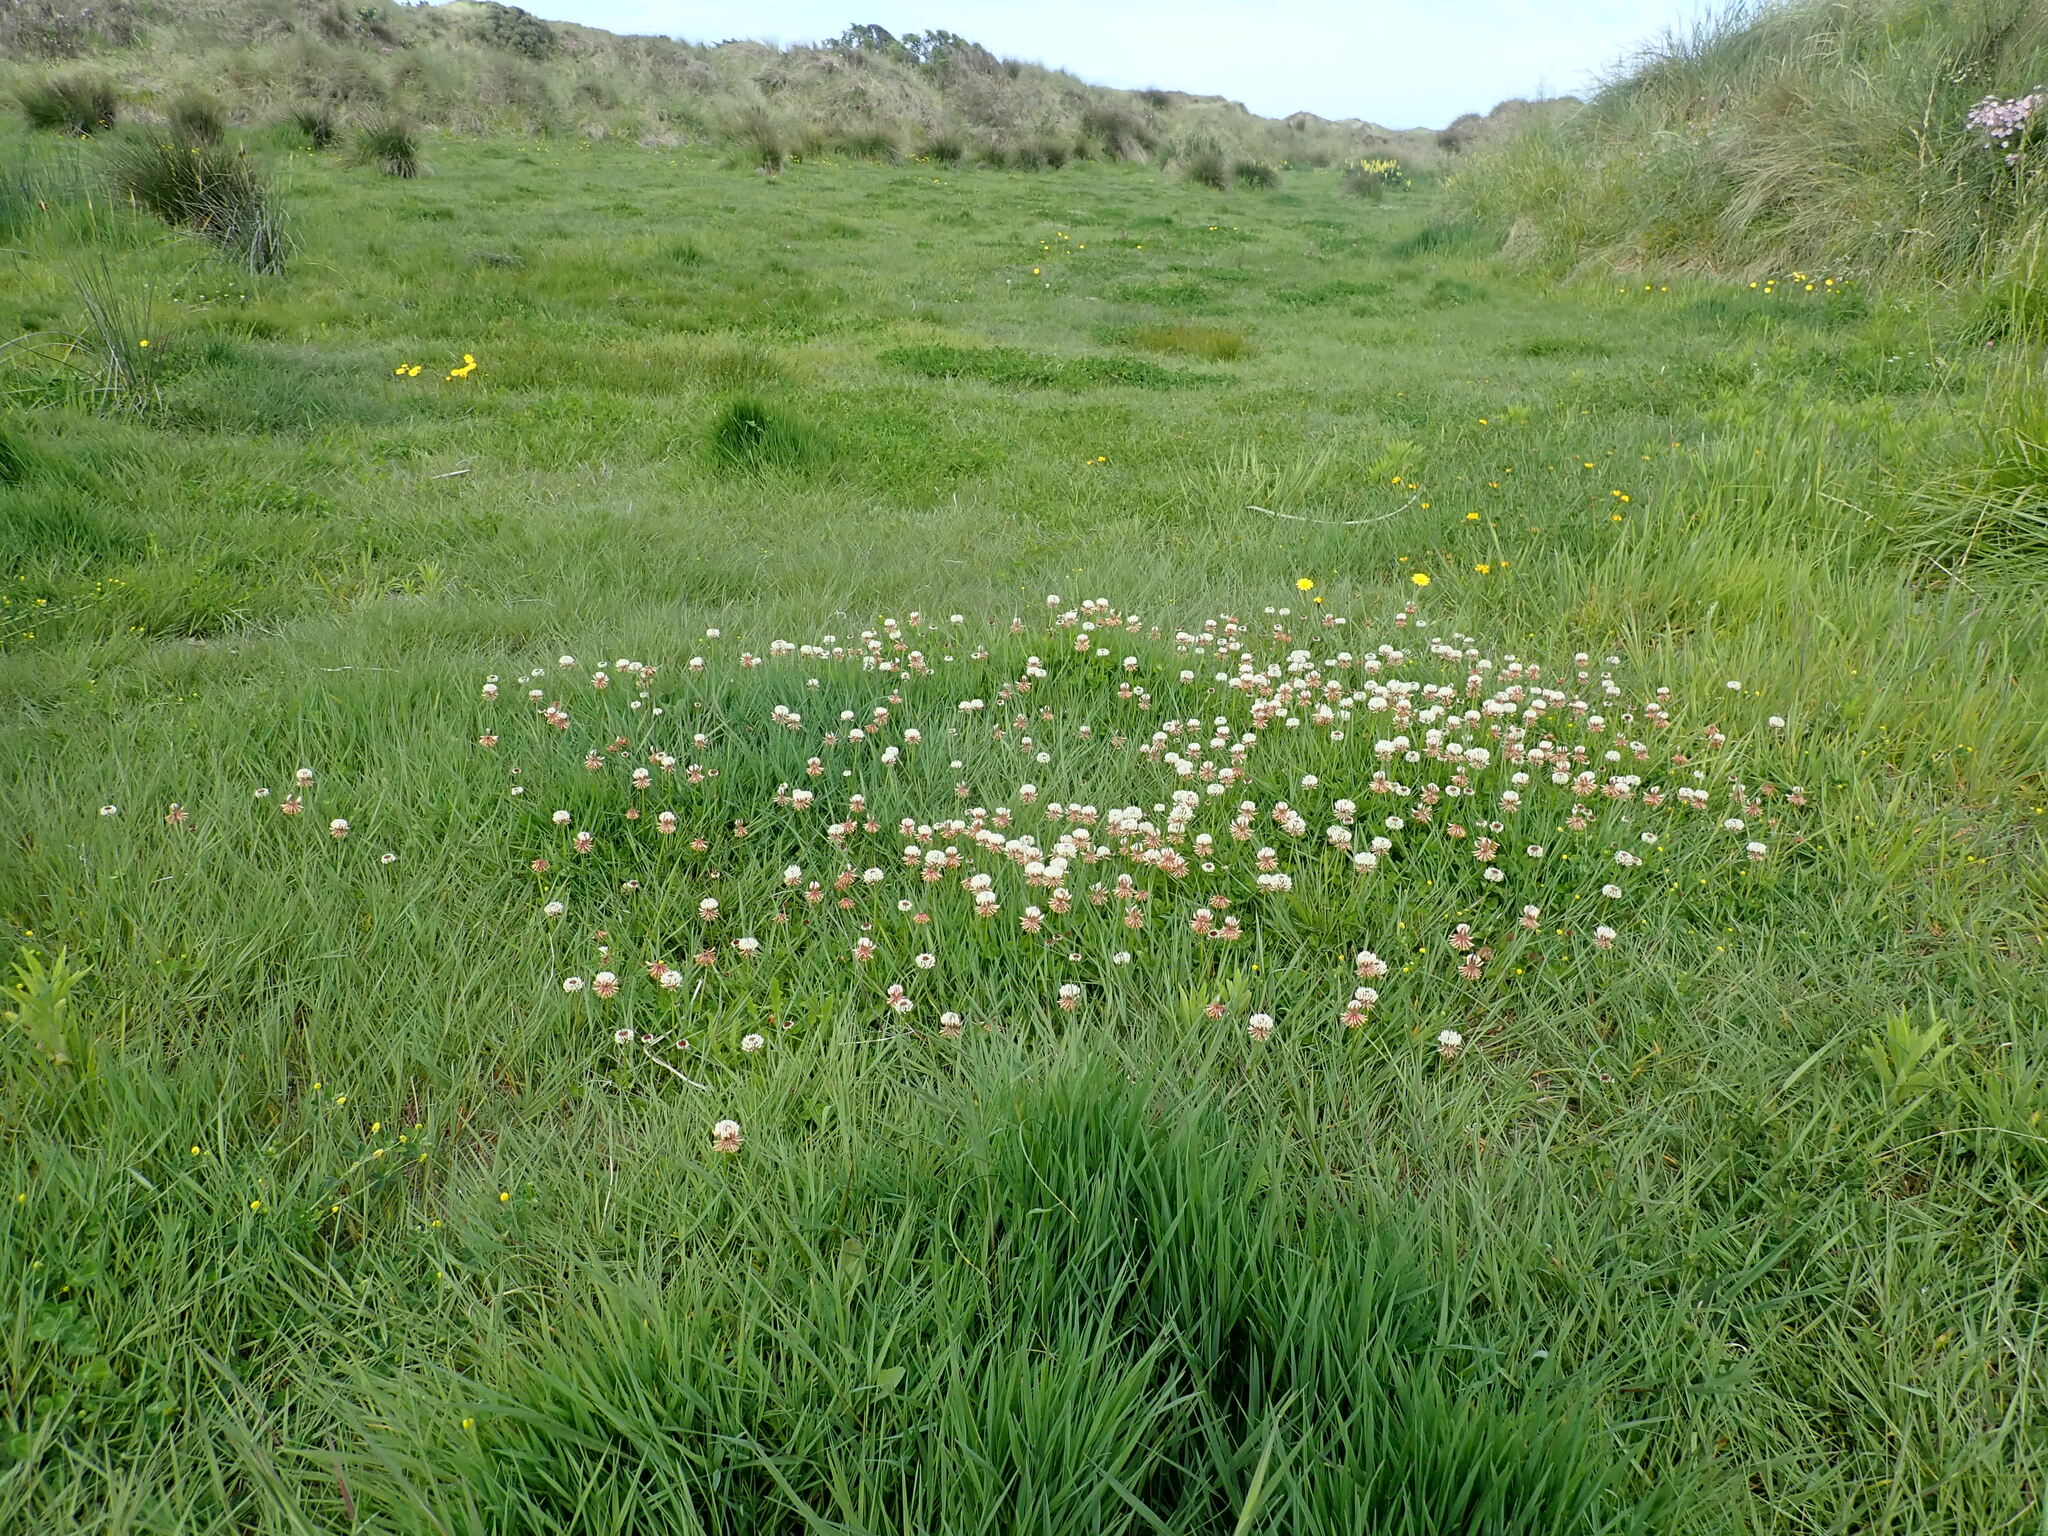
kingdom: Plantae
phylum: Tracheophyta
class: Magnoliopsida
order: Fabales
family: Fabaceae
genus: Trifolium
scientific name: Trifolium repens
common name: White clover
